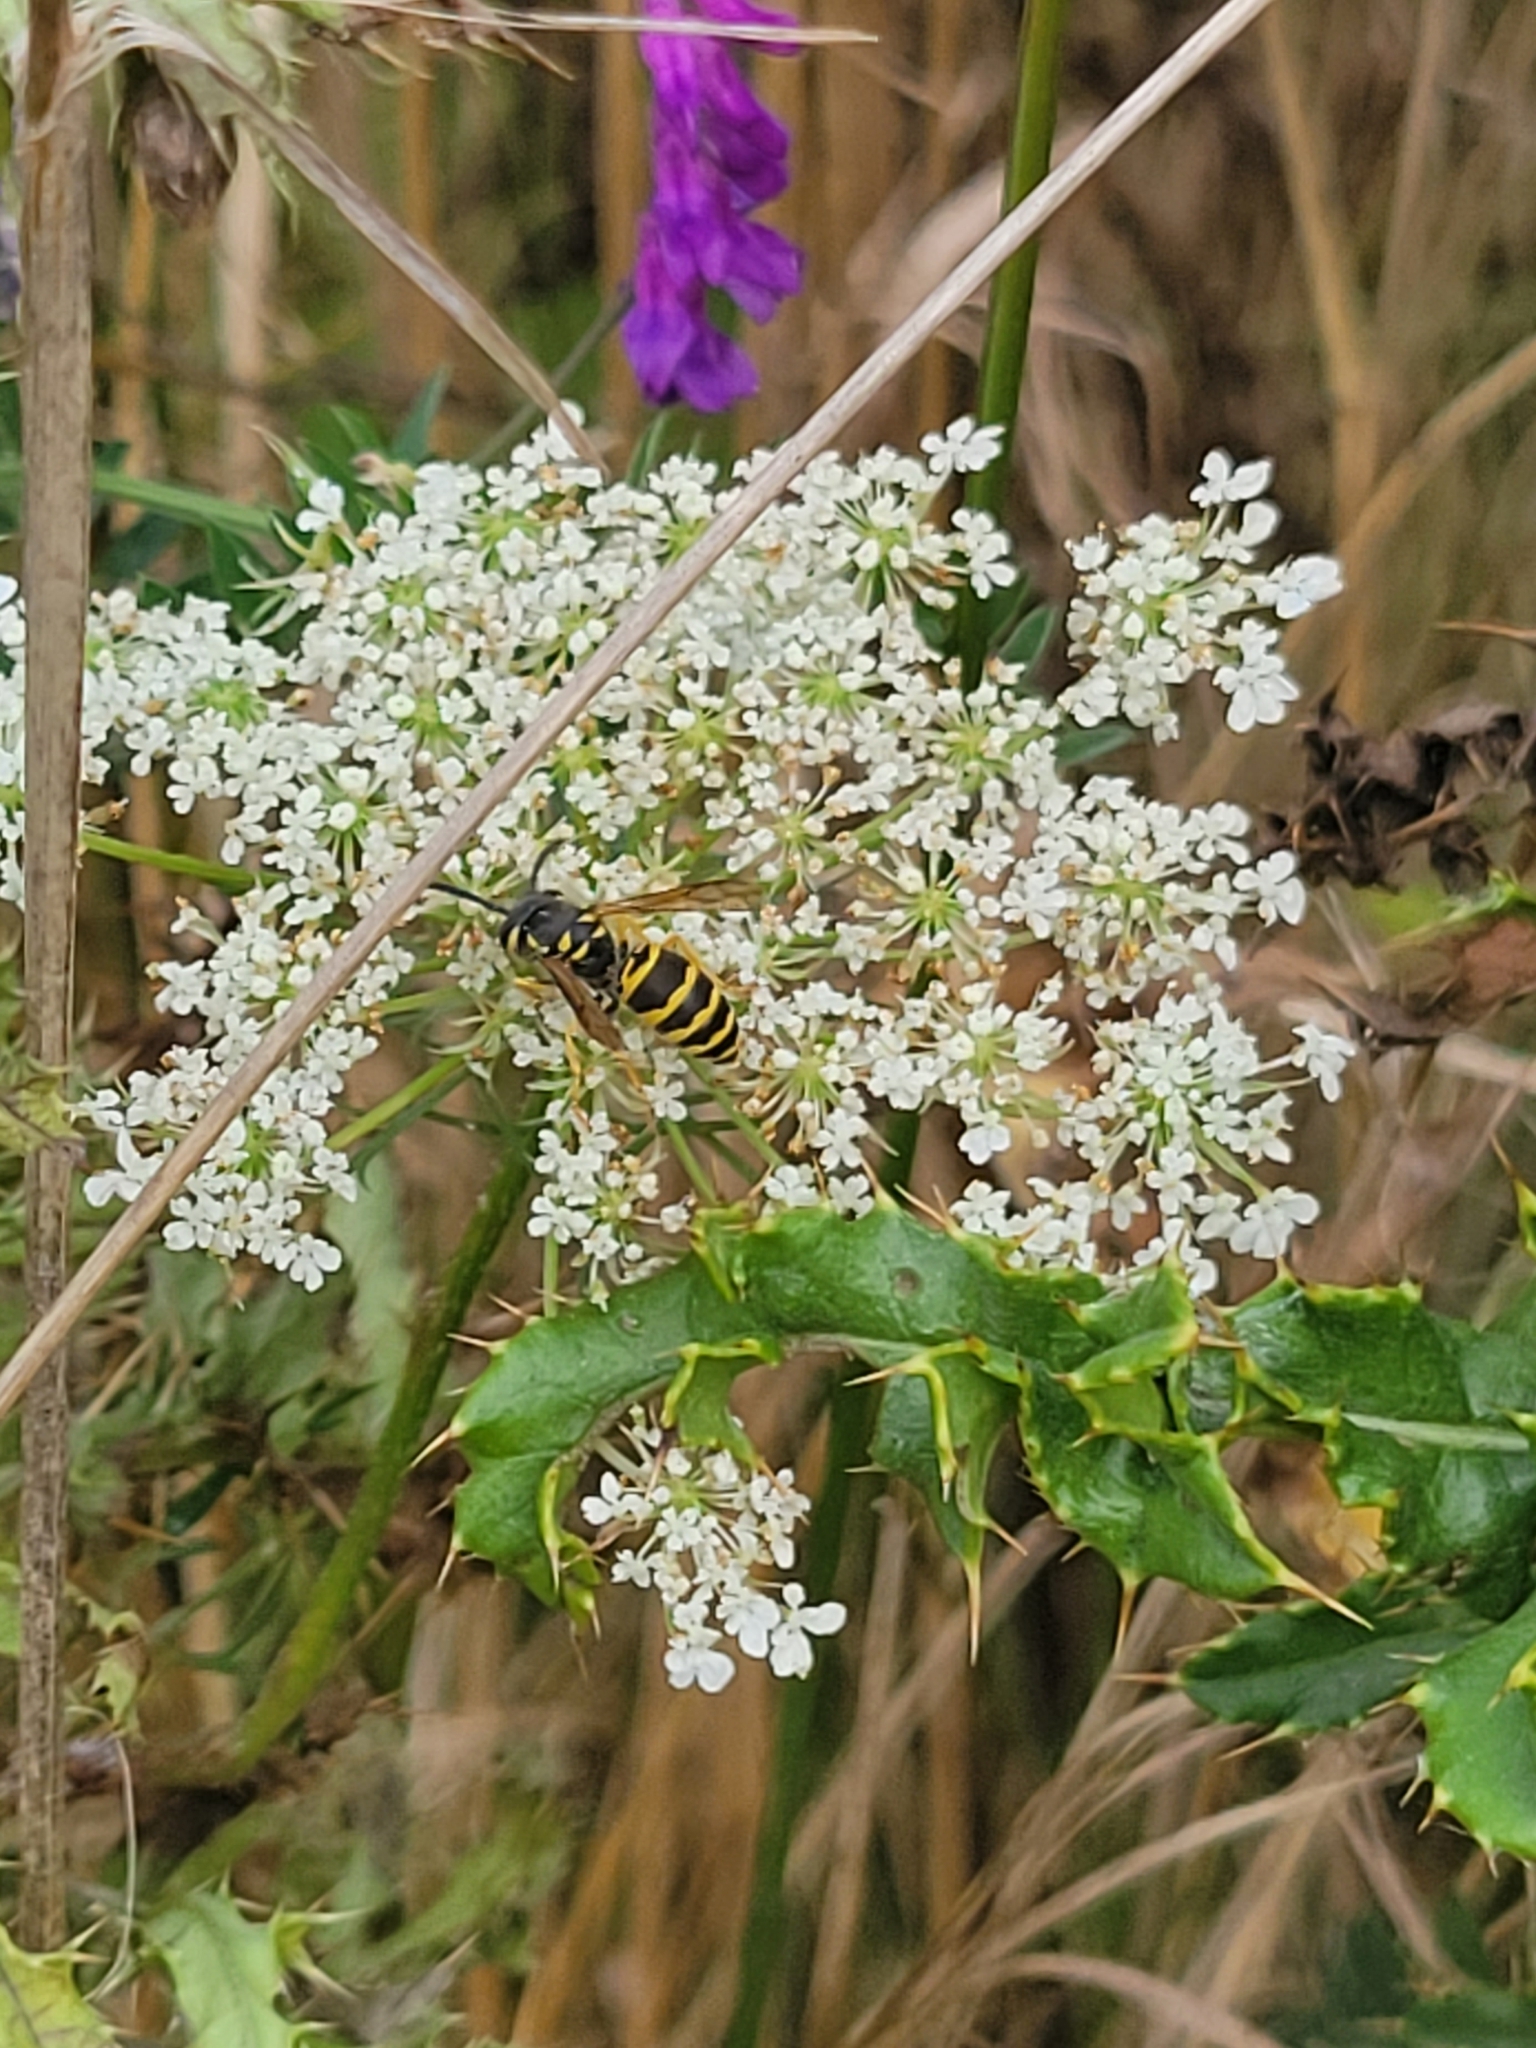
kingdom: Animalia
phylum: Arthropoda
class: Insecta
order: Hymenoptera
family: Vespidae
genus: Vespula
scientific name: Vespula maculifrons
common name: Eastern yellowjacket
